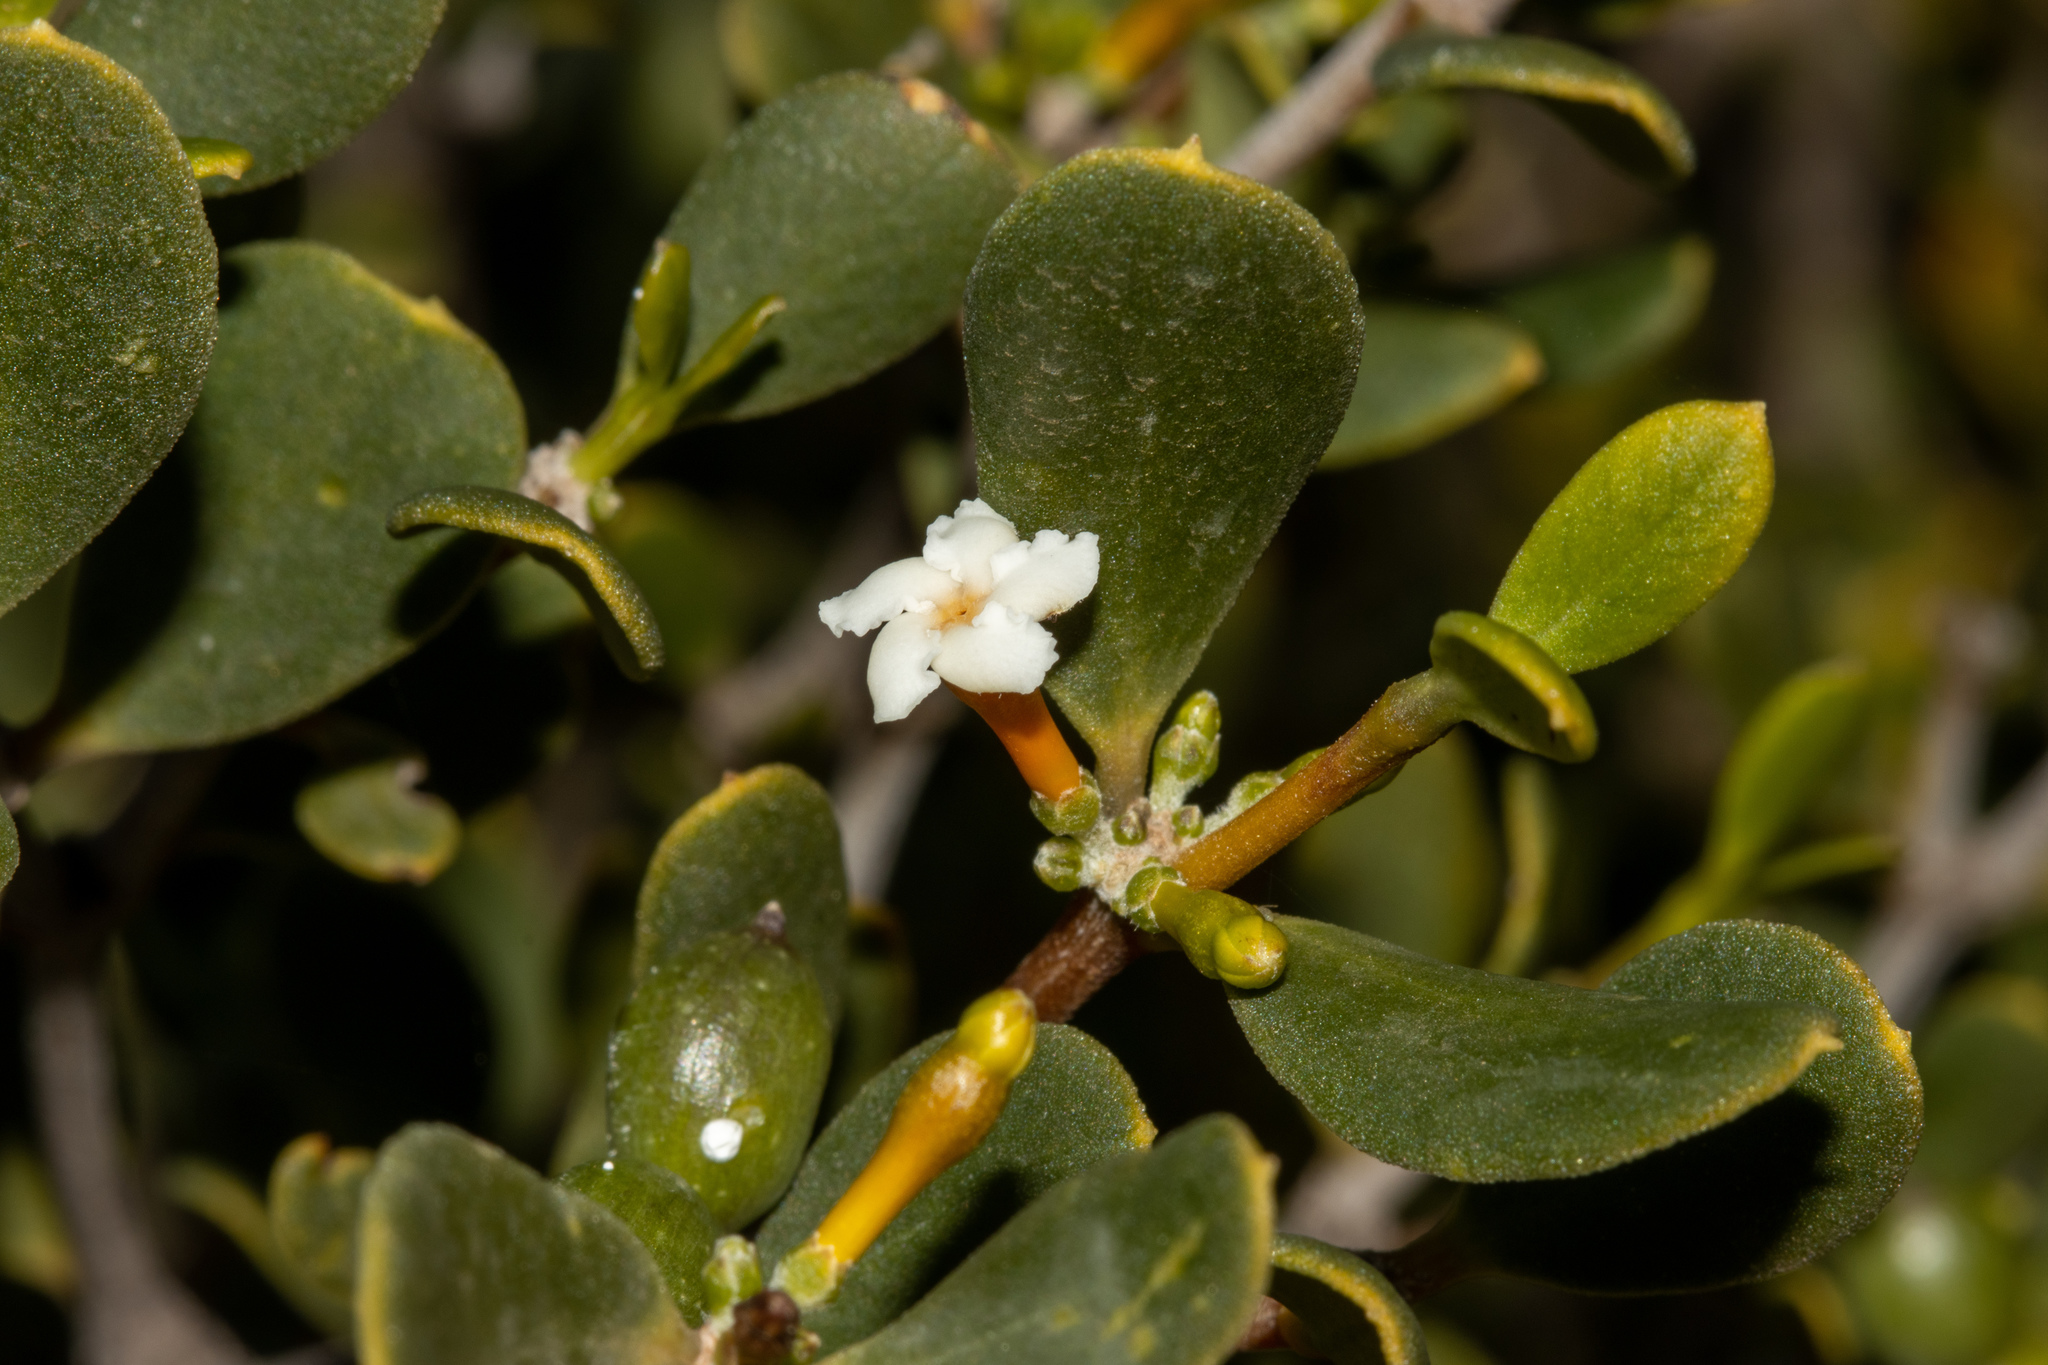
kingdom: Plantae
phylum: Tracheophyta
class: Magnoliopsida
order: Gentianales
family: Apocynaceae
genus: Alyxia
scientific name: Alyxia buxifolia
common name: Dysentery-bush
